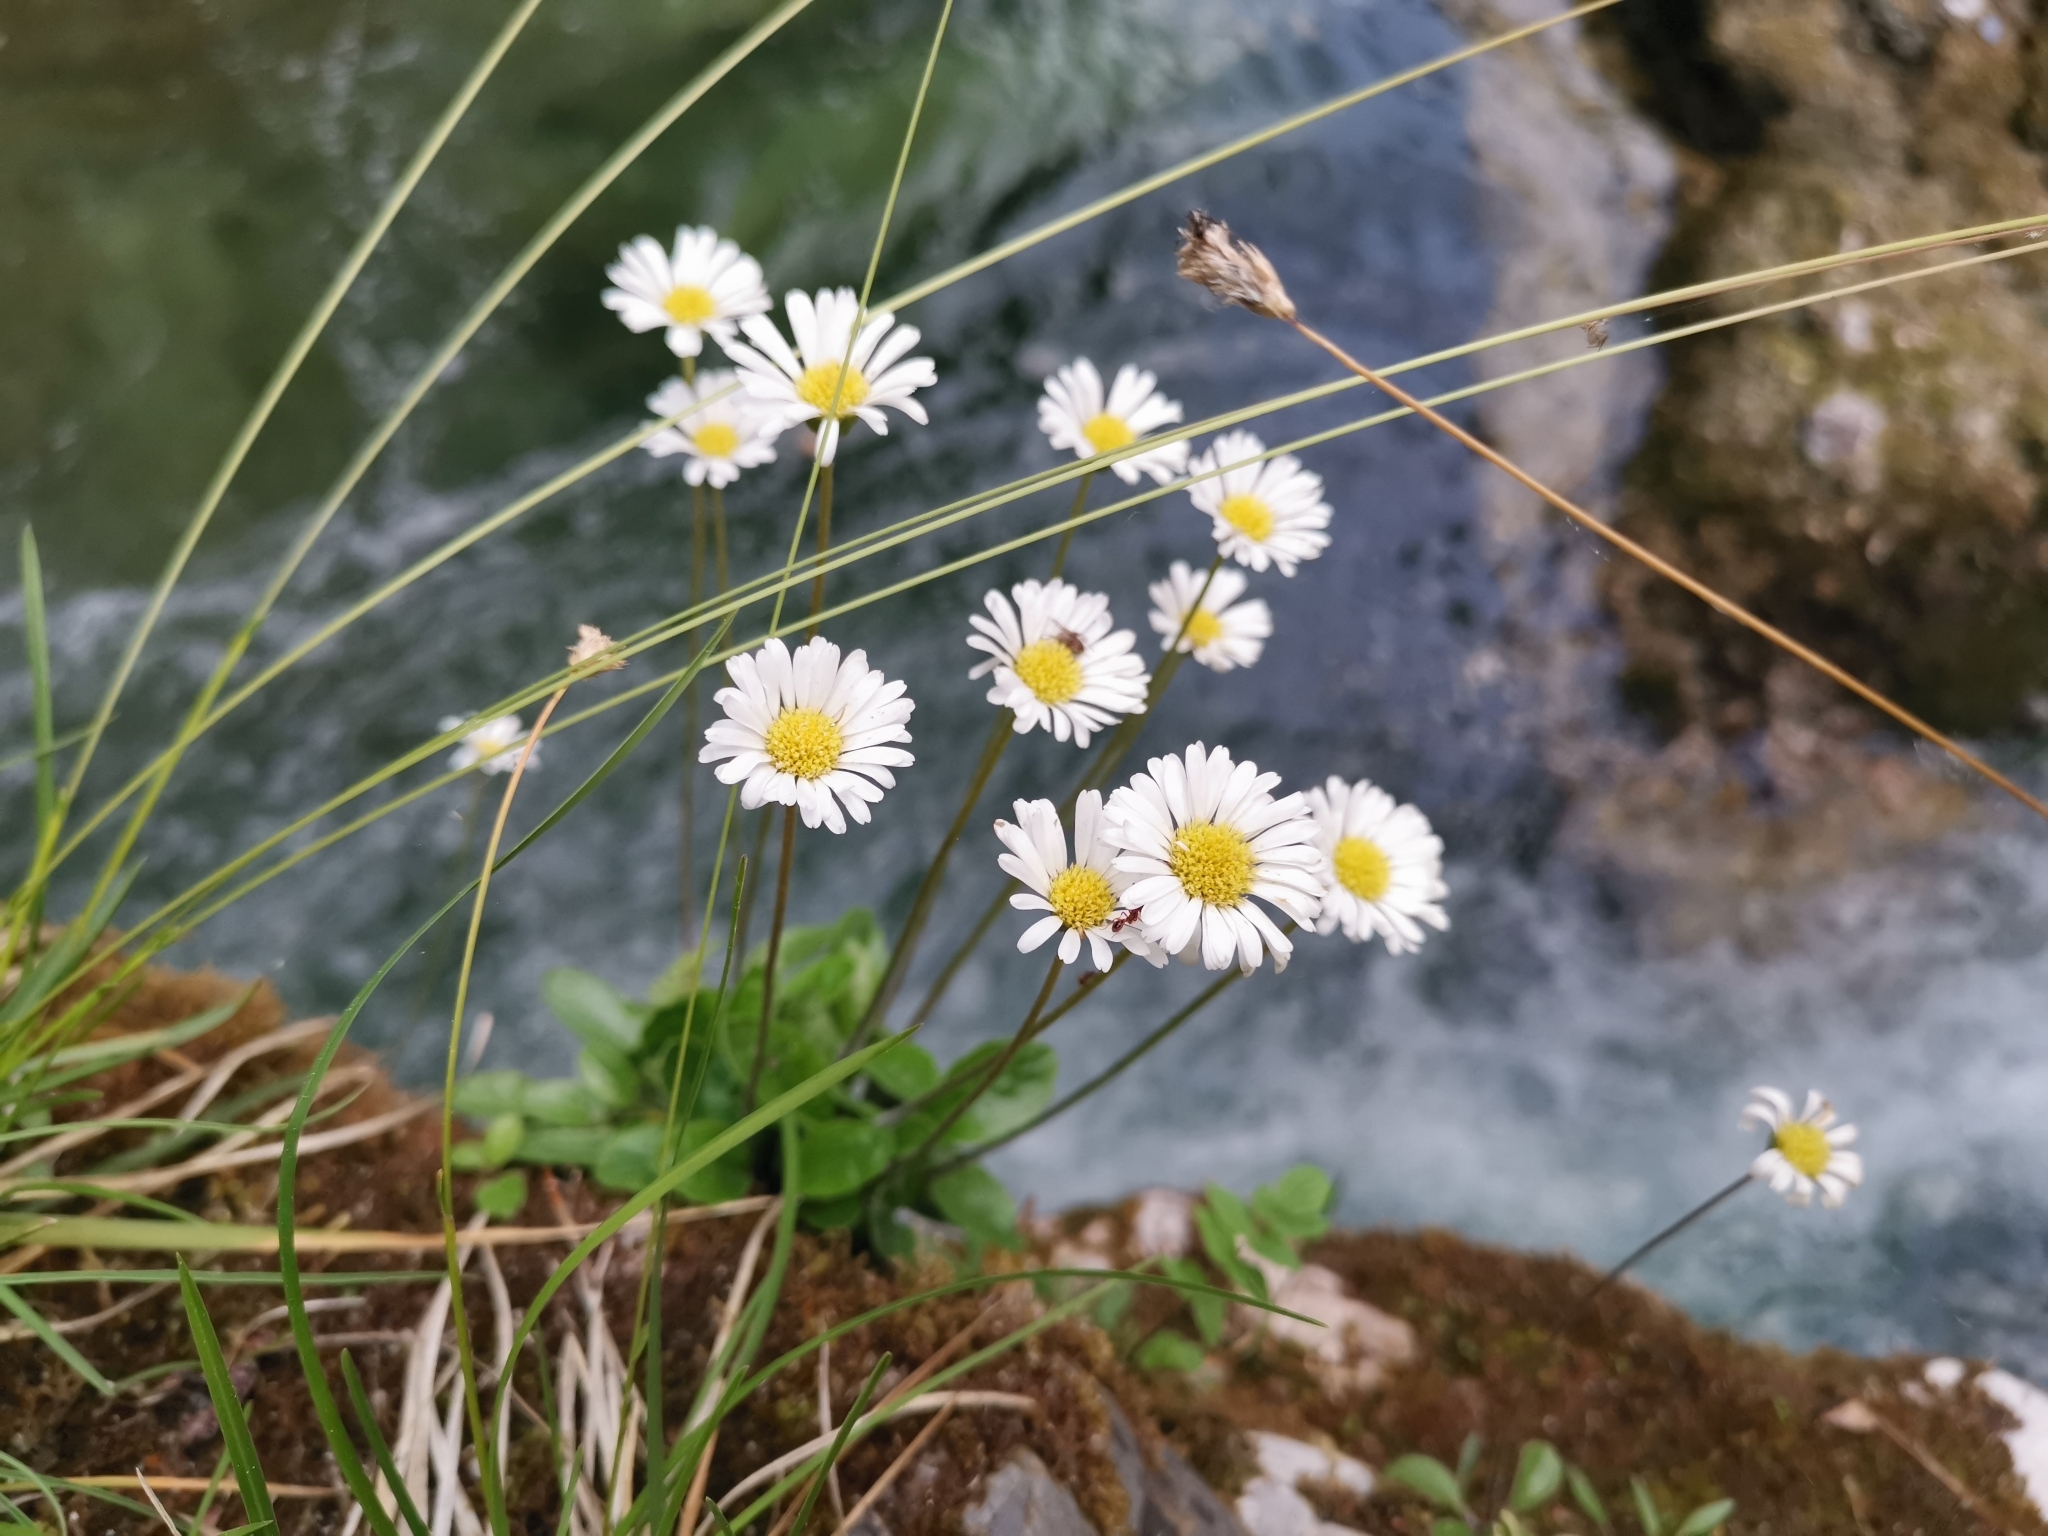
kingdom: Plantae
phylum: Tracheophyta
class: Magnoliopsida
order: Asterales
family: Asteraceae
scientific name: Asteraceae
